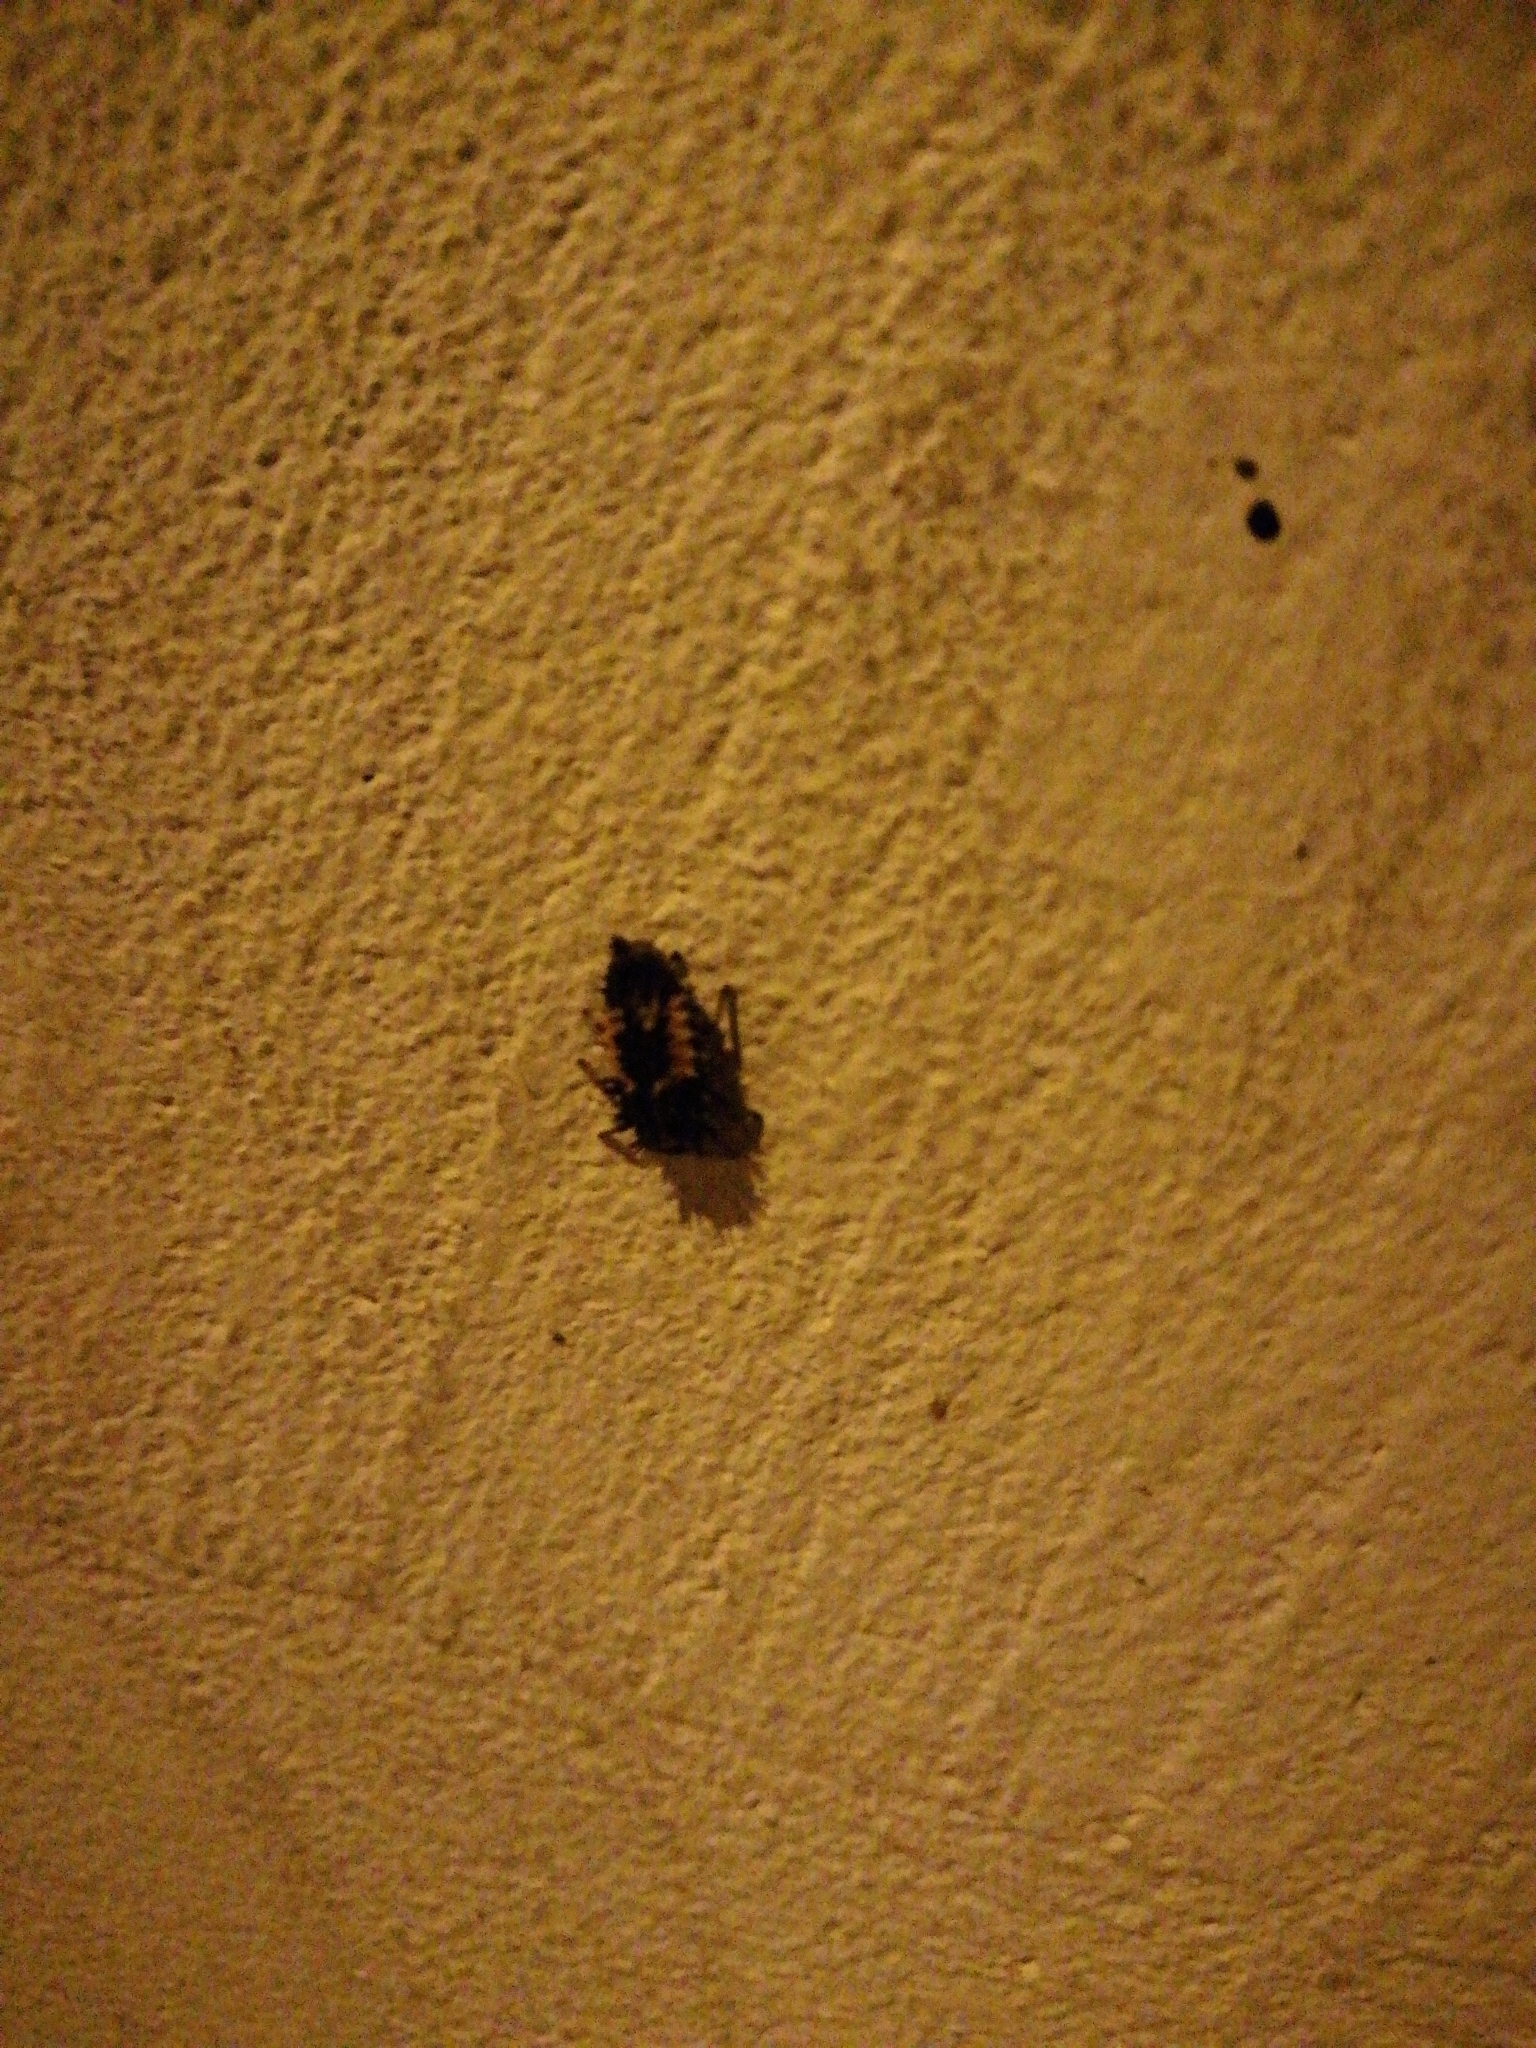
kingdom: Animalia
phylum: Arthropoda
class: Insecta
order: Coleoptera
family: Coccinellidae
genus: Harmonia
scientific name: Harmonia axyridis
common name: Harlequin ladybird
